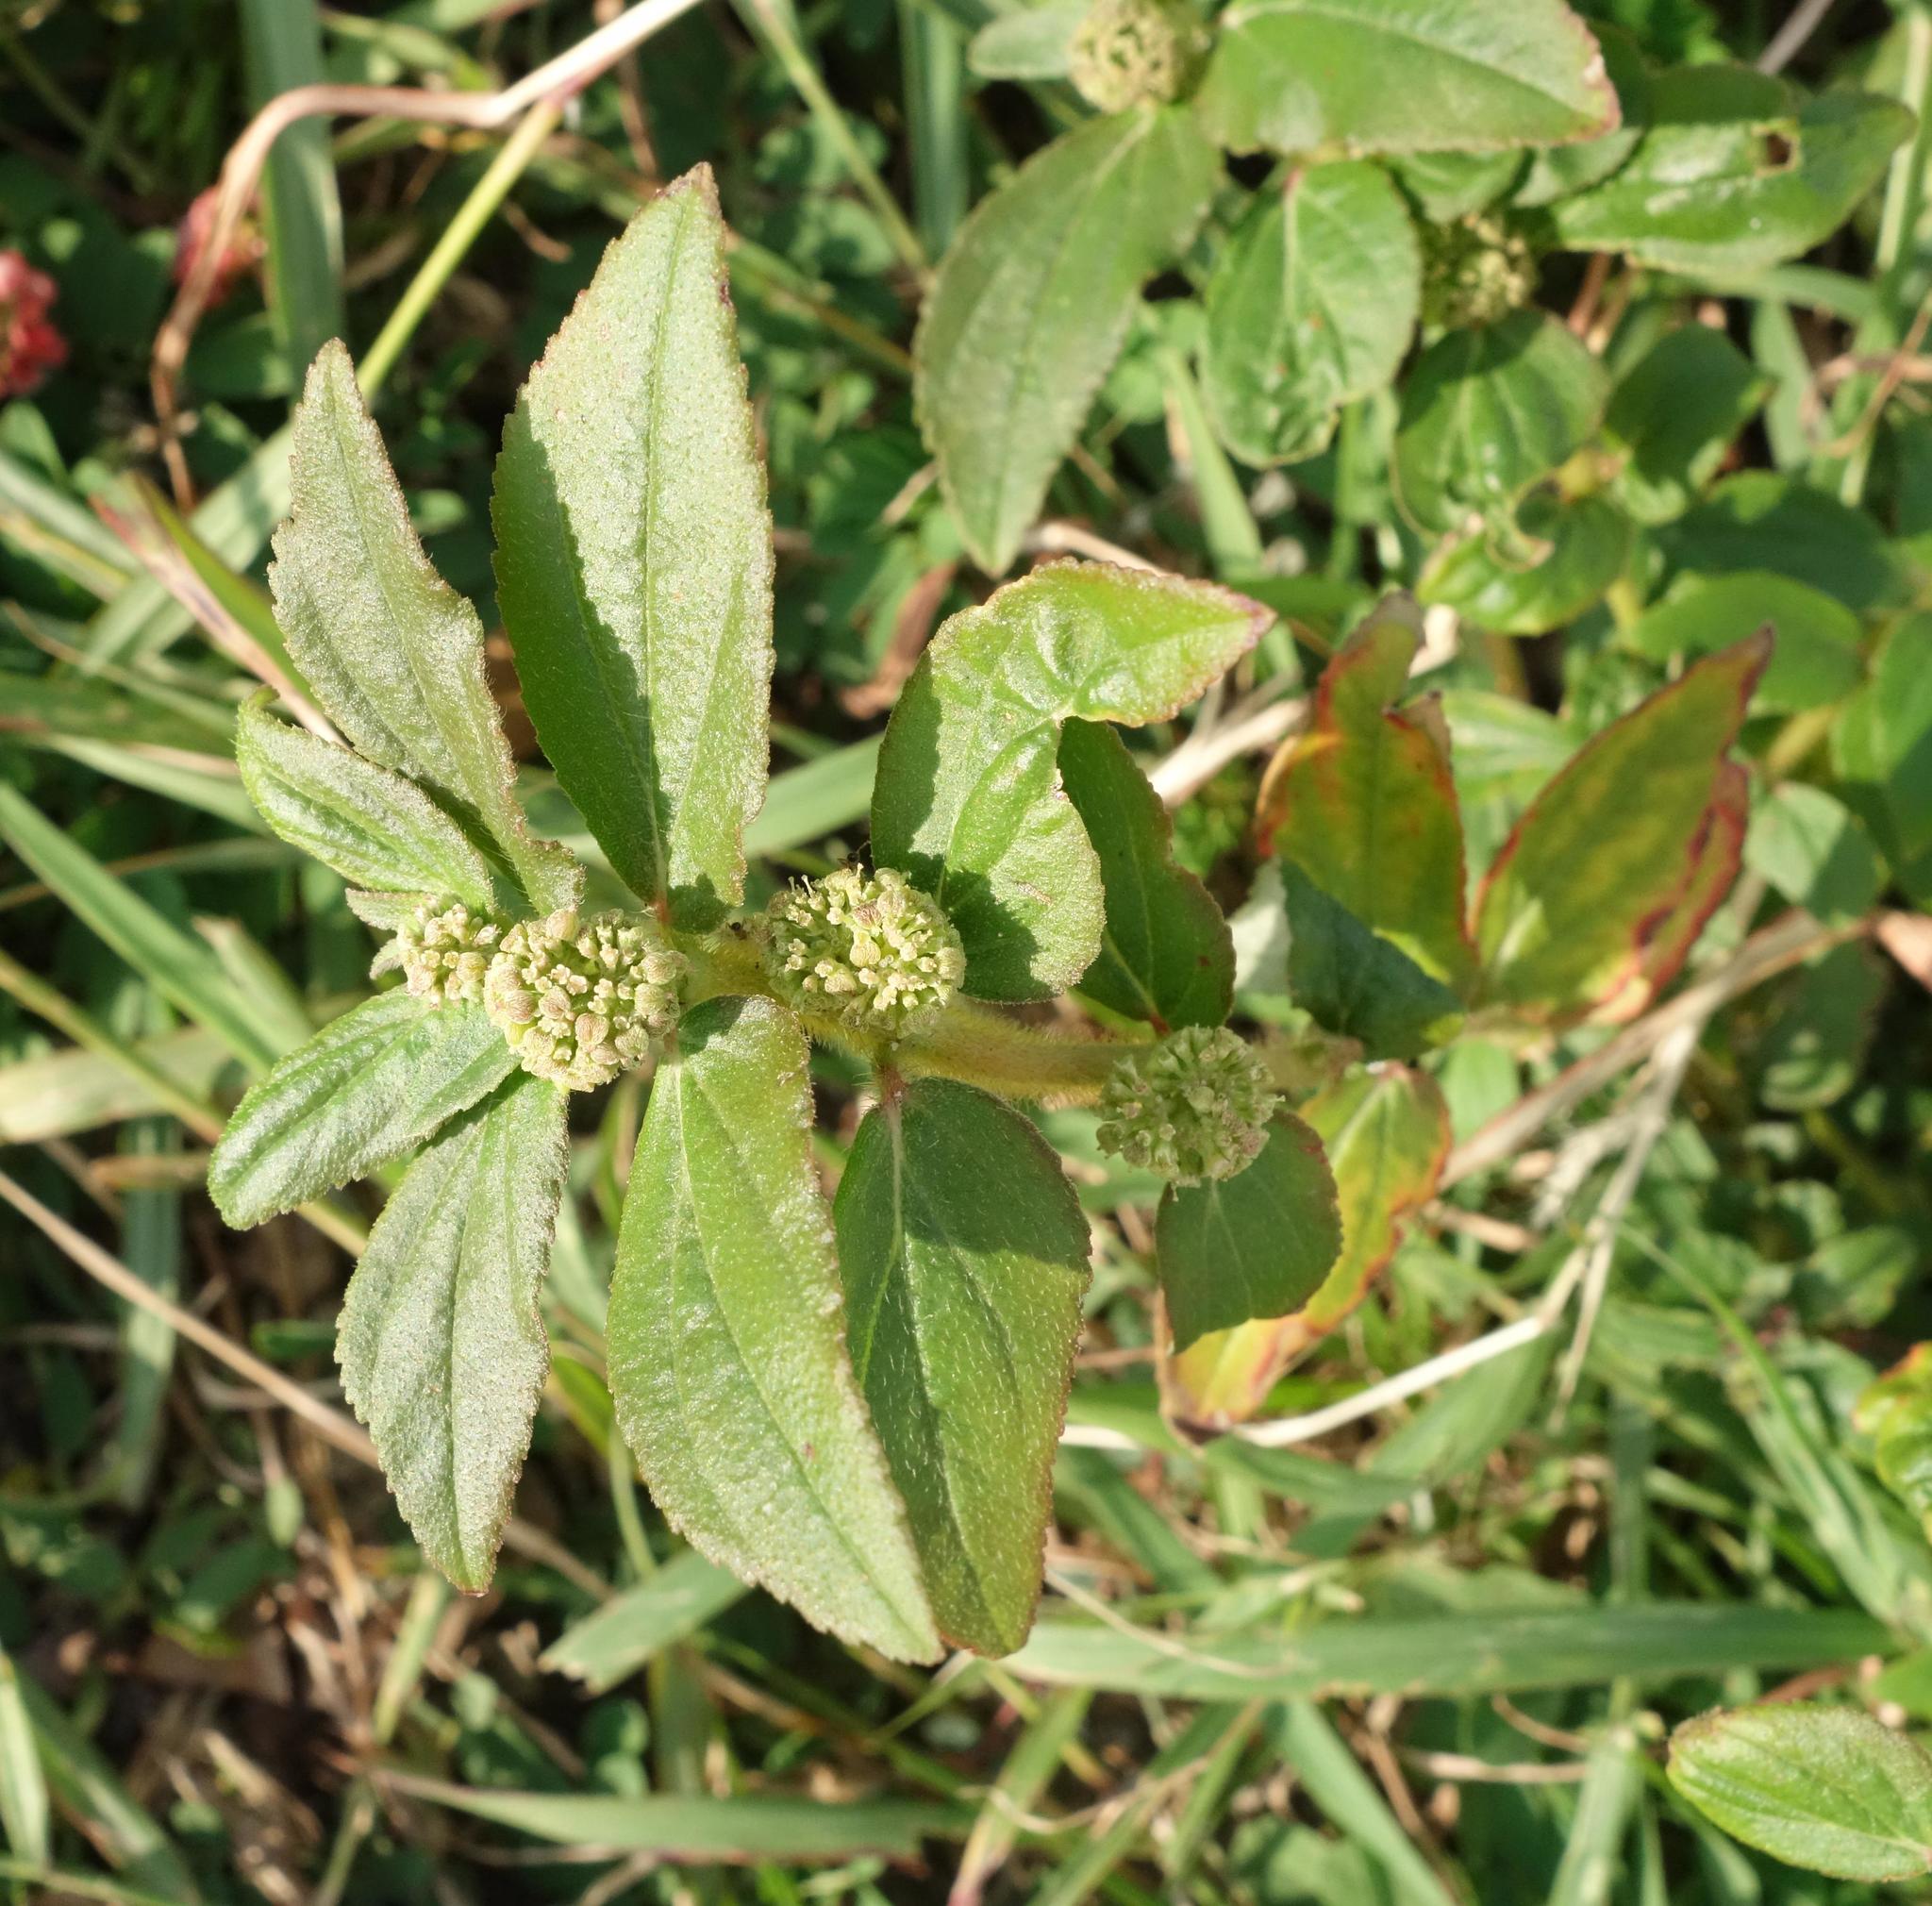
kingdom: Plantae
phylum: Tracheophyta
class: Magnoliopsida
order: Malpighiales
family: Euphorbiaceae
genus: Euphorbia
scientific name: Euphorbia hirta
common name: Pillpod sandmat
